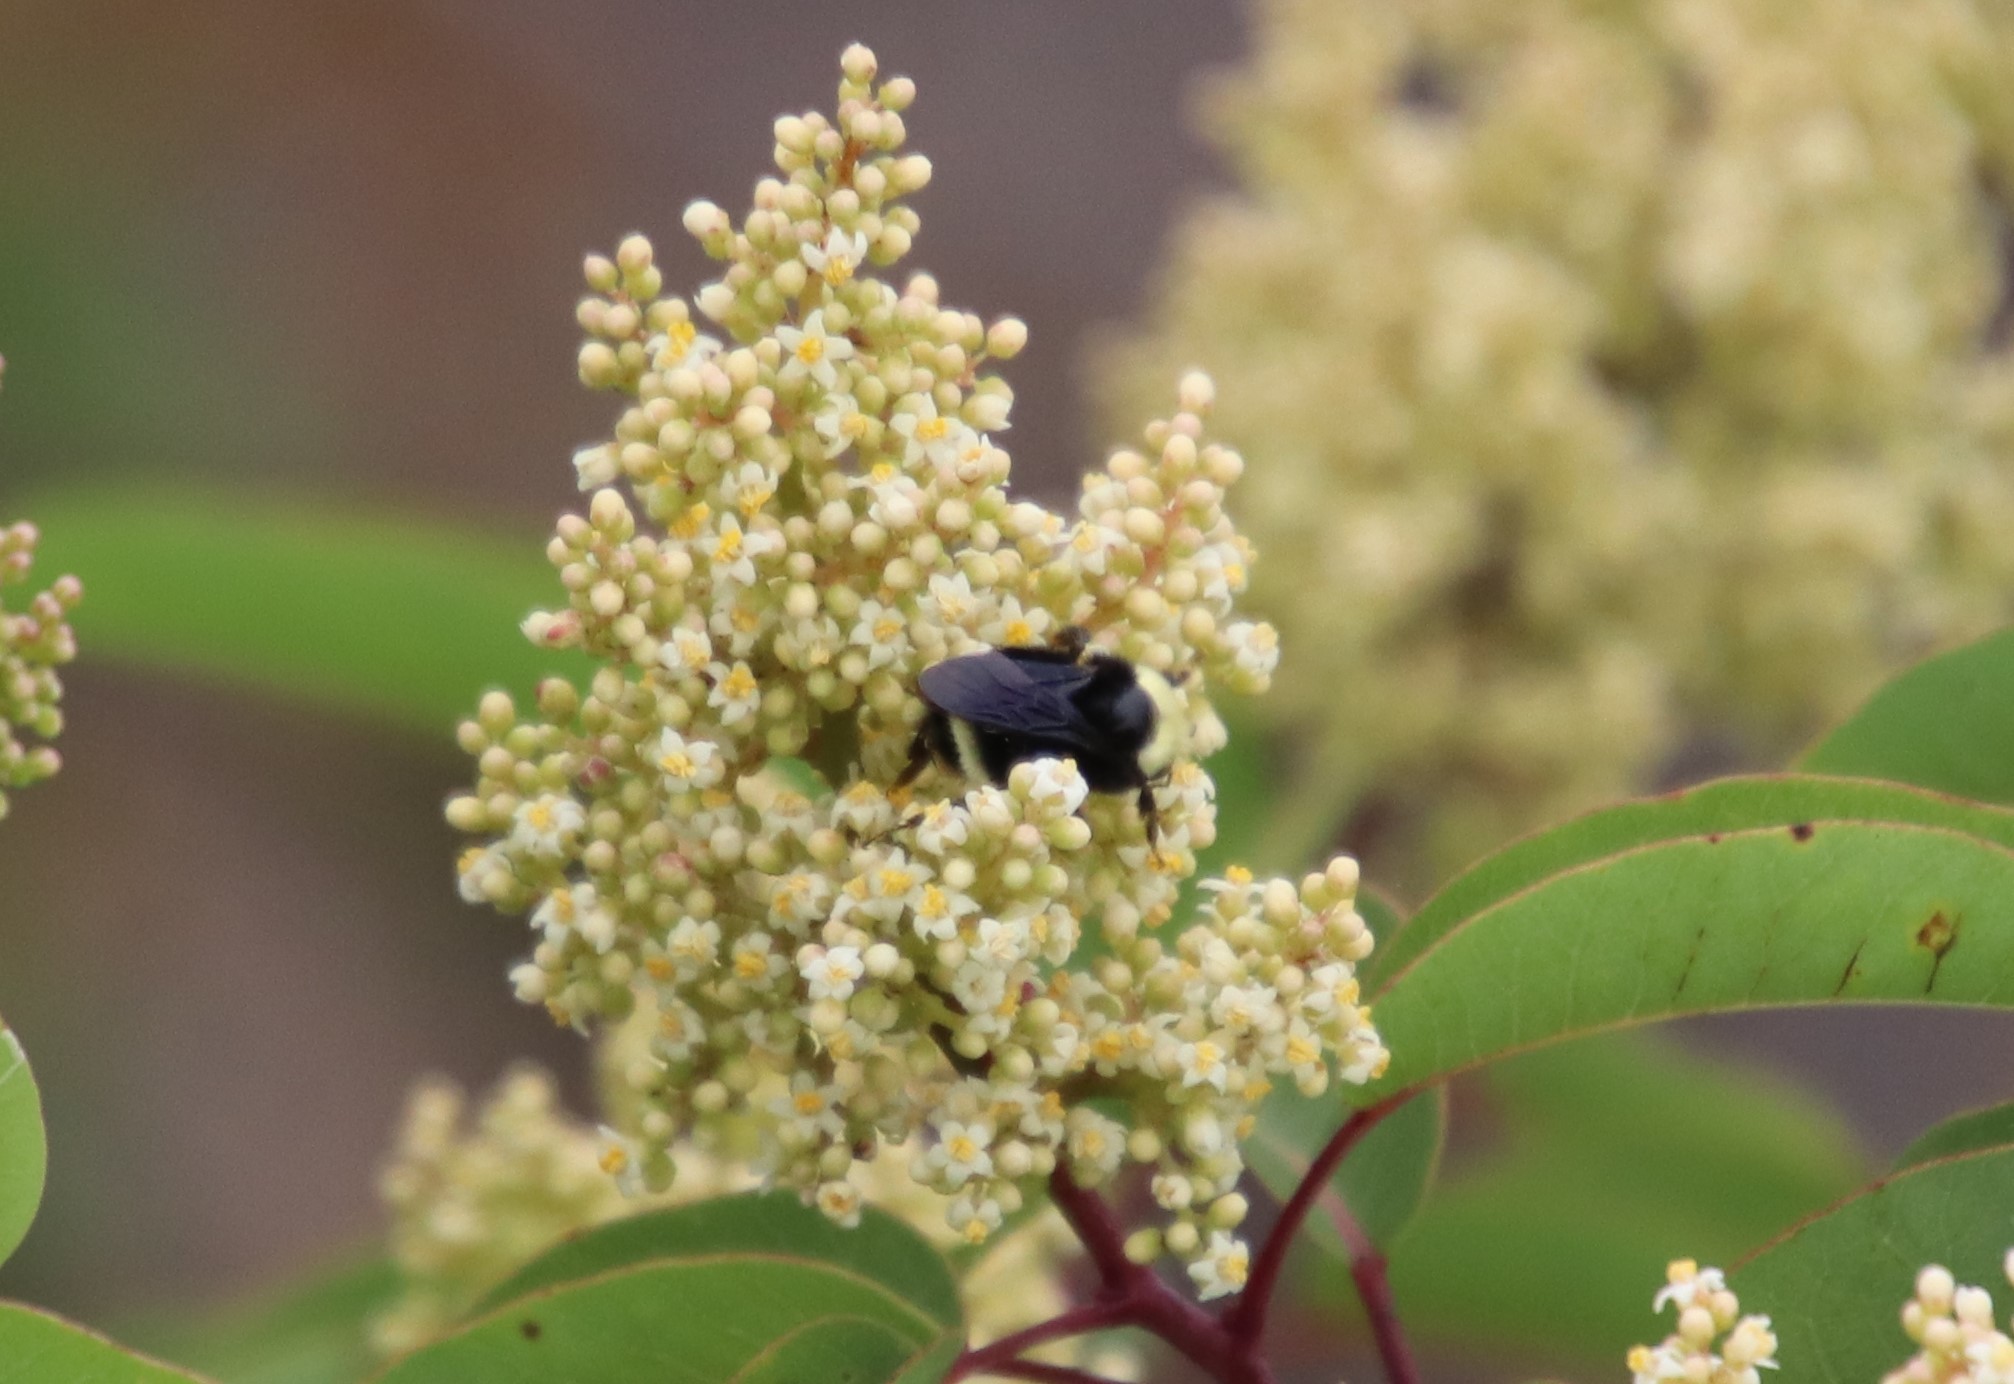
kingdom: Animalia
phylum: Arthropoda
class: Insecta
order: Hymenoptera
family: Apidae
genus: Bombus
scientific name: Bombus vosnesenskii
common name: Vosnesensky bumble bee
